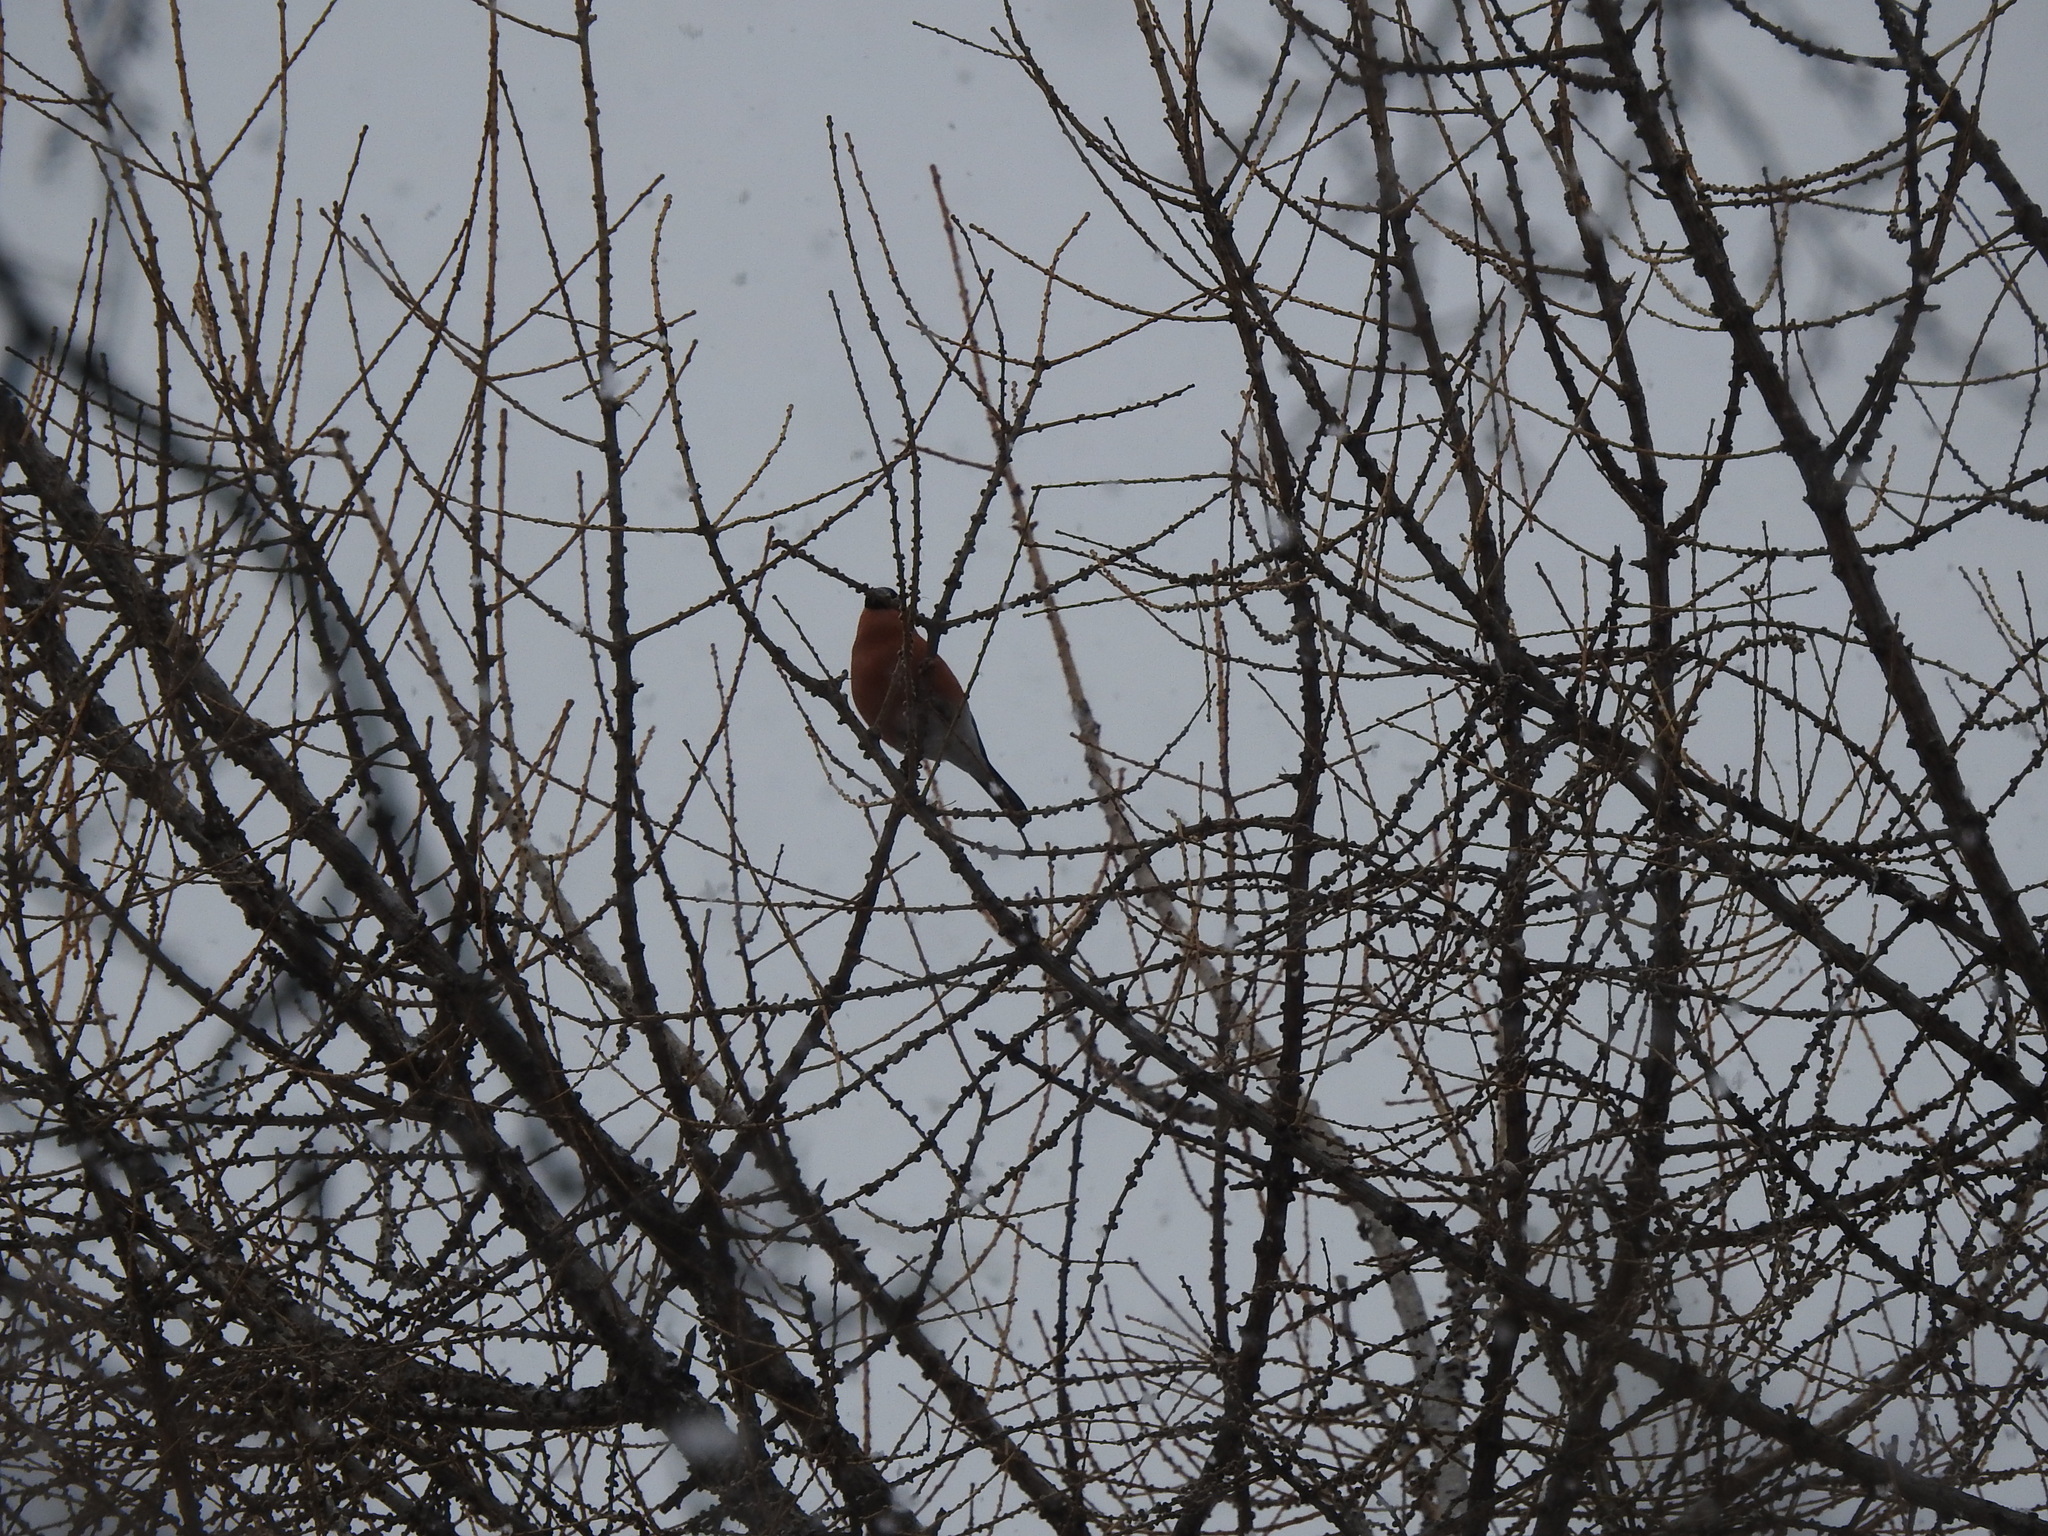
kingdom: Animalia
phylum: Chordata
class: Aves
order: Passeriformes
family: Fringillidae
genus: Pyrrhula
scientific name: Pyrrhula pyrrhula
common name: Eurasian bullfinch
